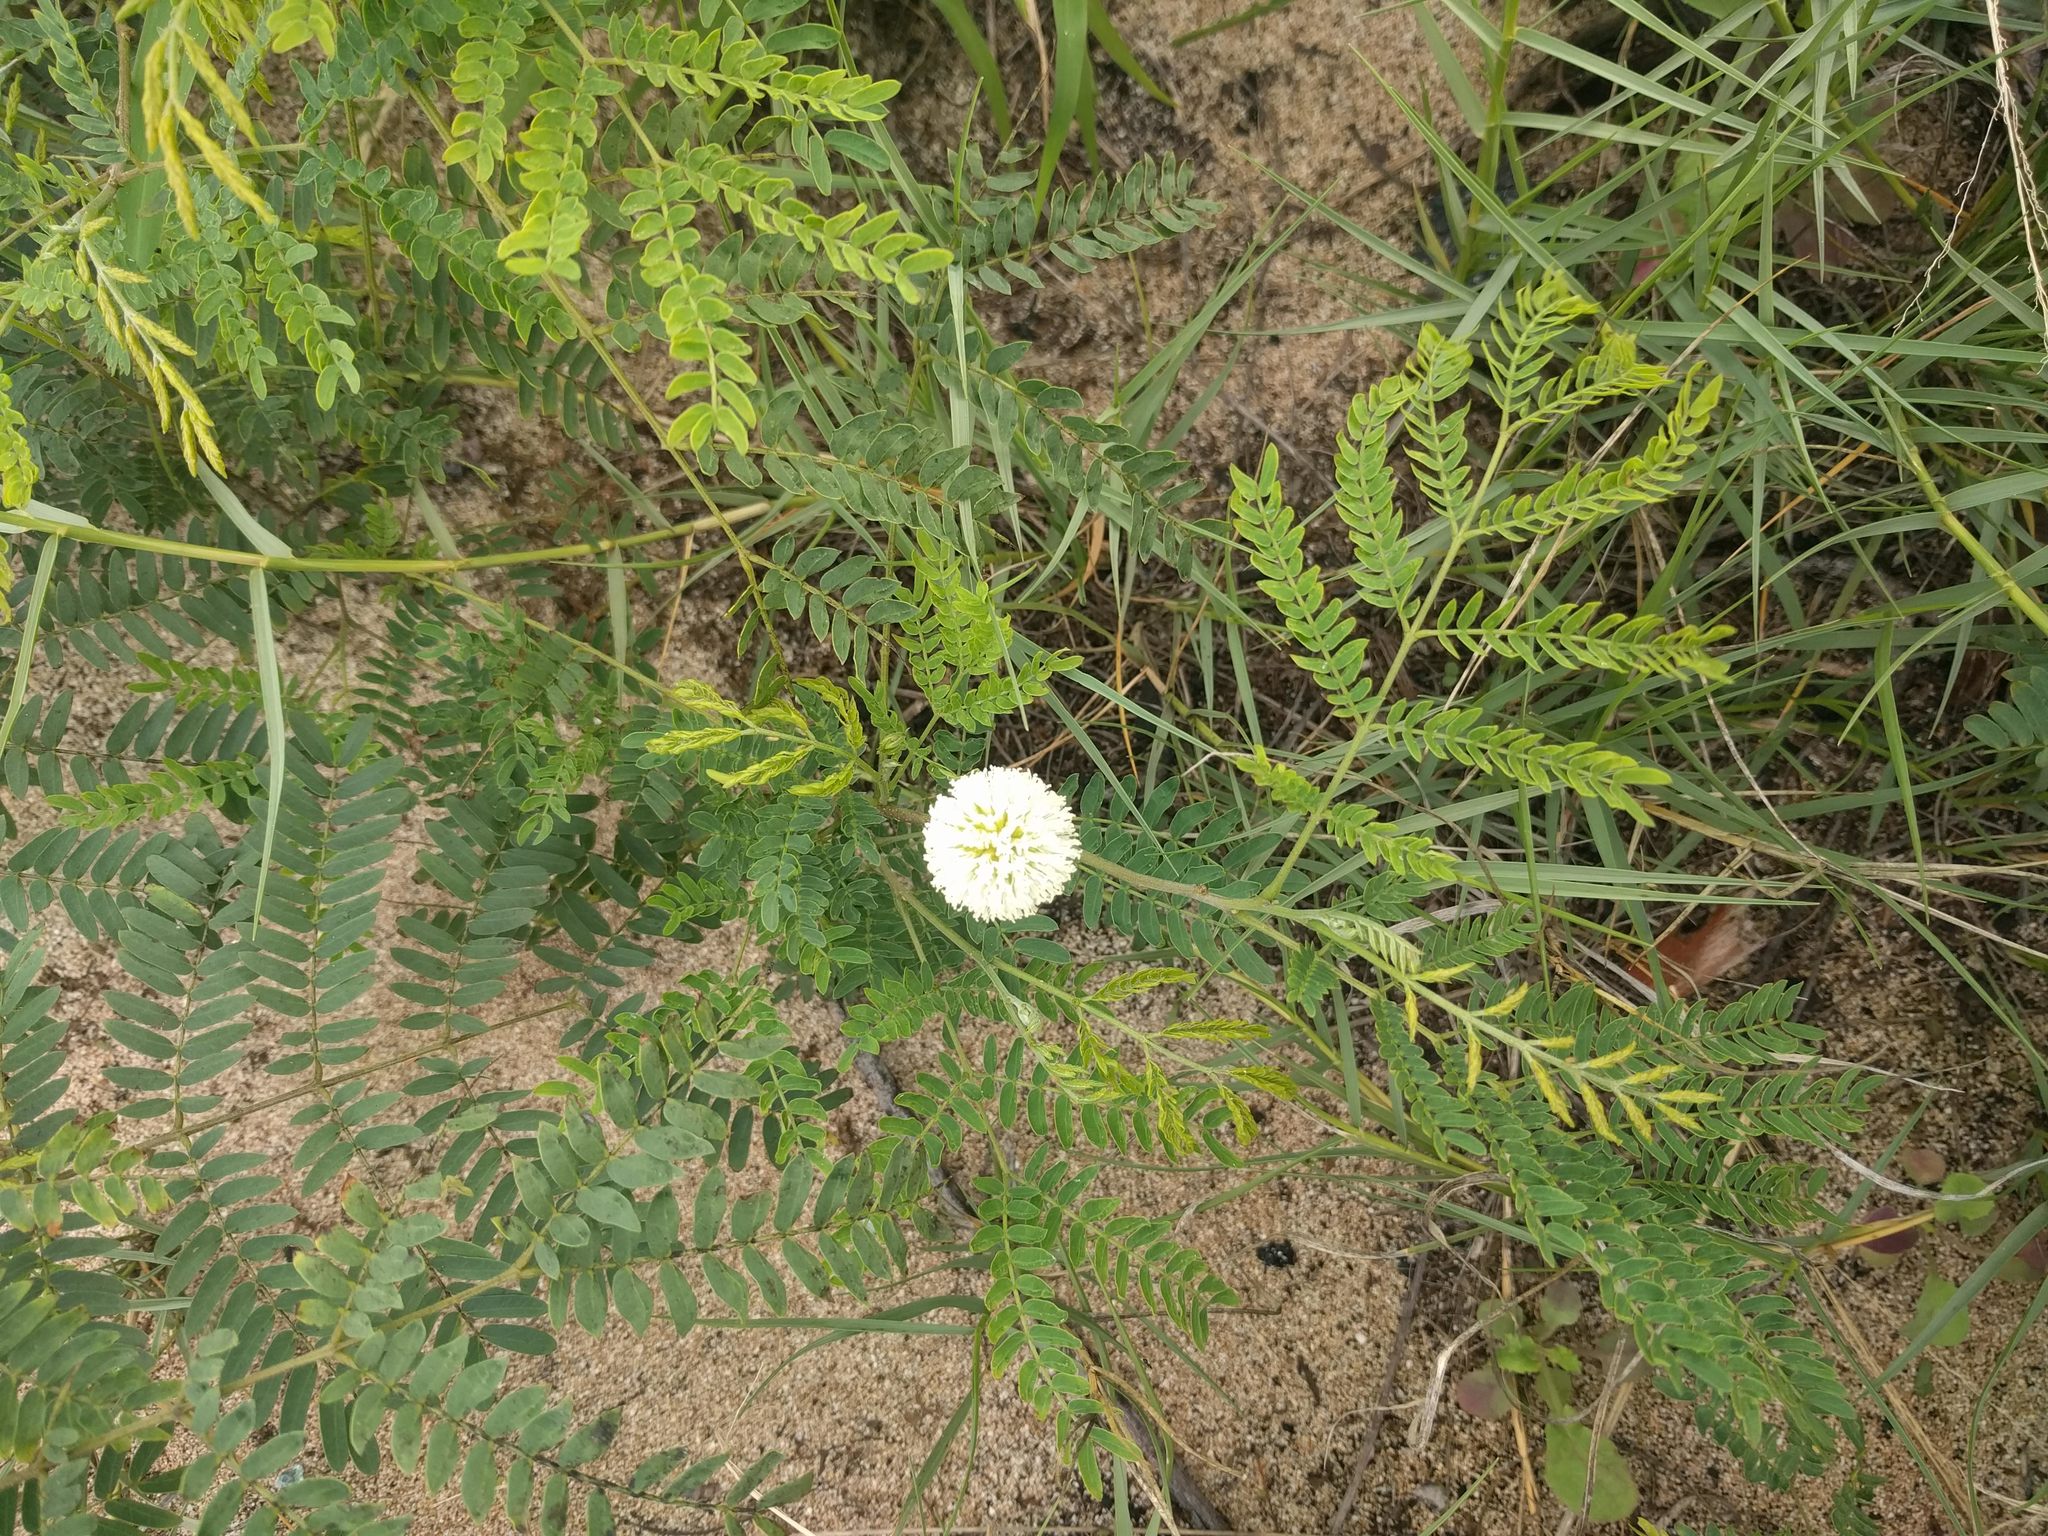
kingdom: Plantae
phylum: Tracheophyta
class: Magnoliopsida
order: Fabales
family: Fabaceae
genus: Leucaena
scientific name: Leucaena leucocephala
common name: White leadtree
